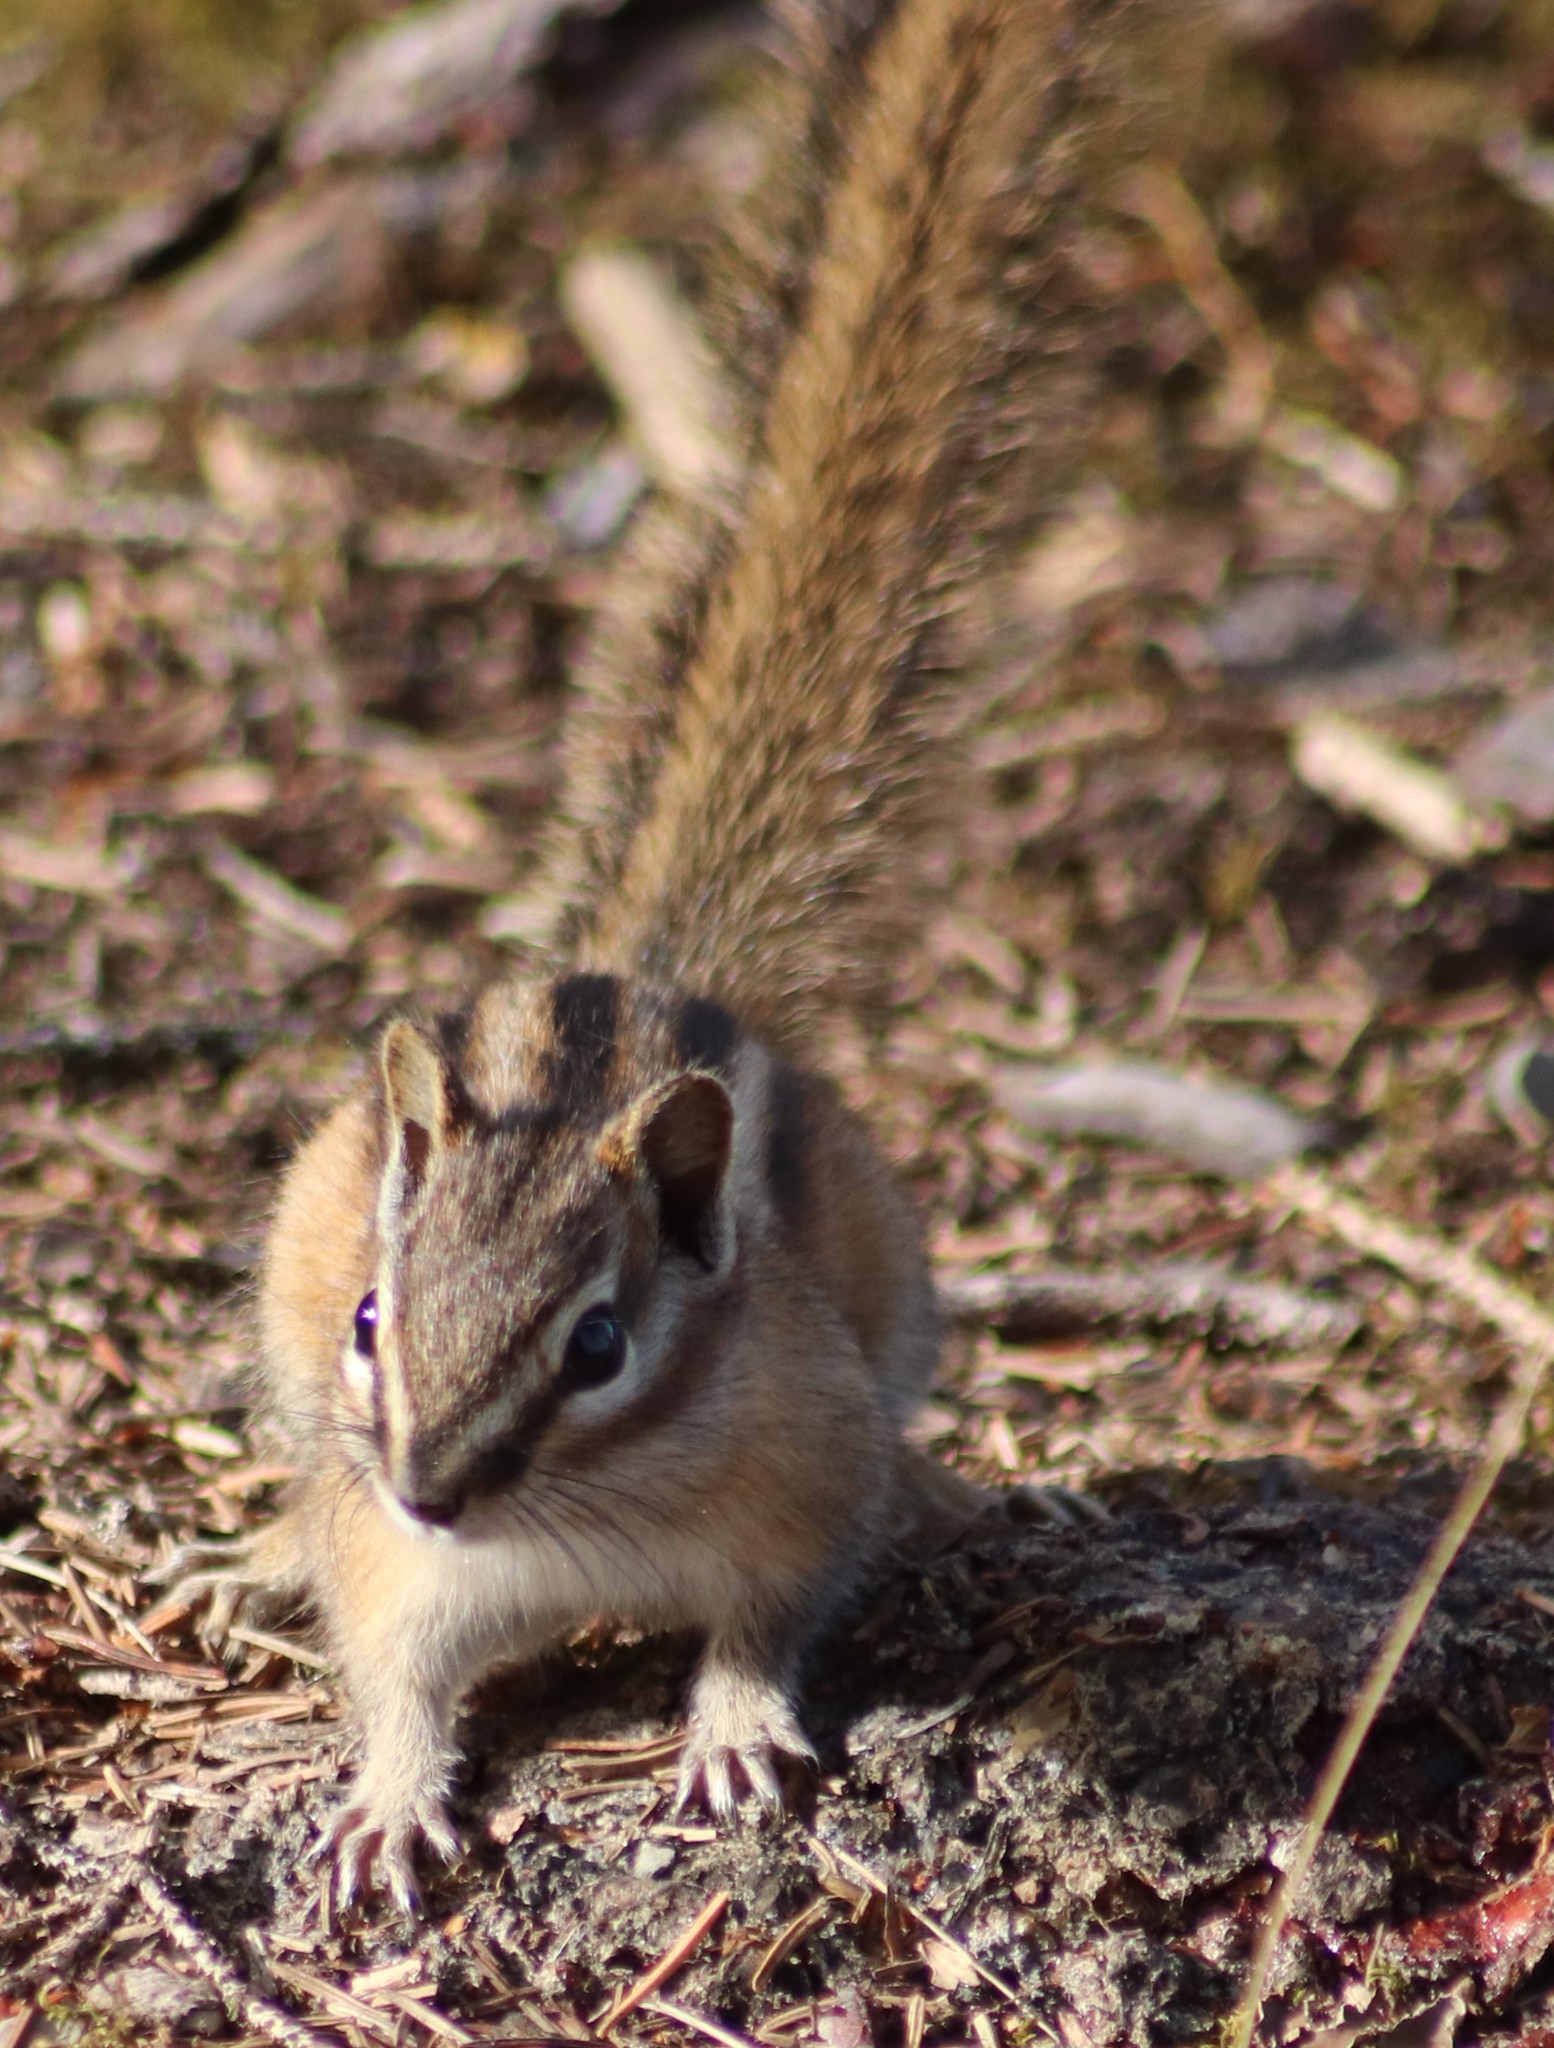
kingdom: Animalia
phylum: Chordata
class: Mammalia
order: Rodentia
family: Sciuridae
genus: Tamias
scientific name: Tamias minimus
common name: Least chipmunk
